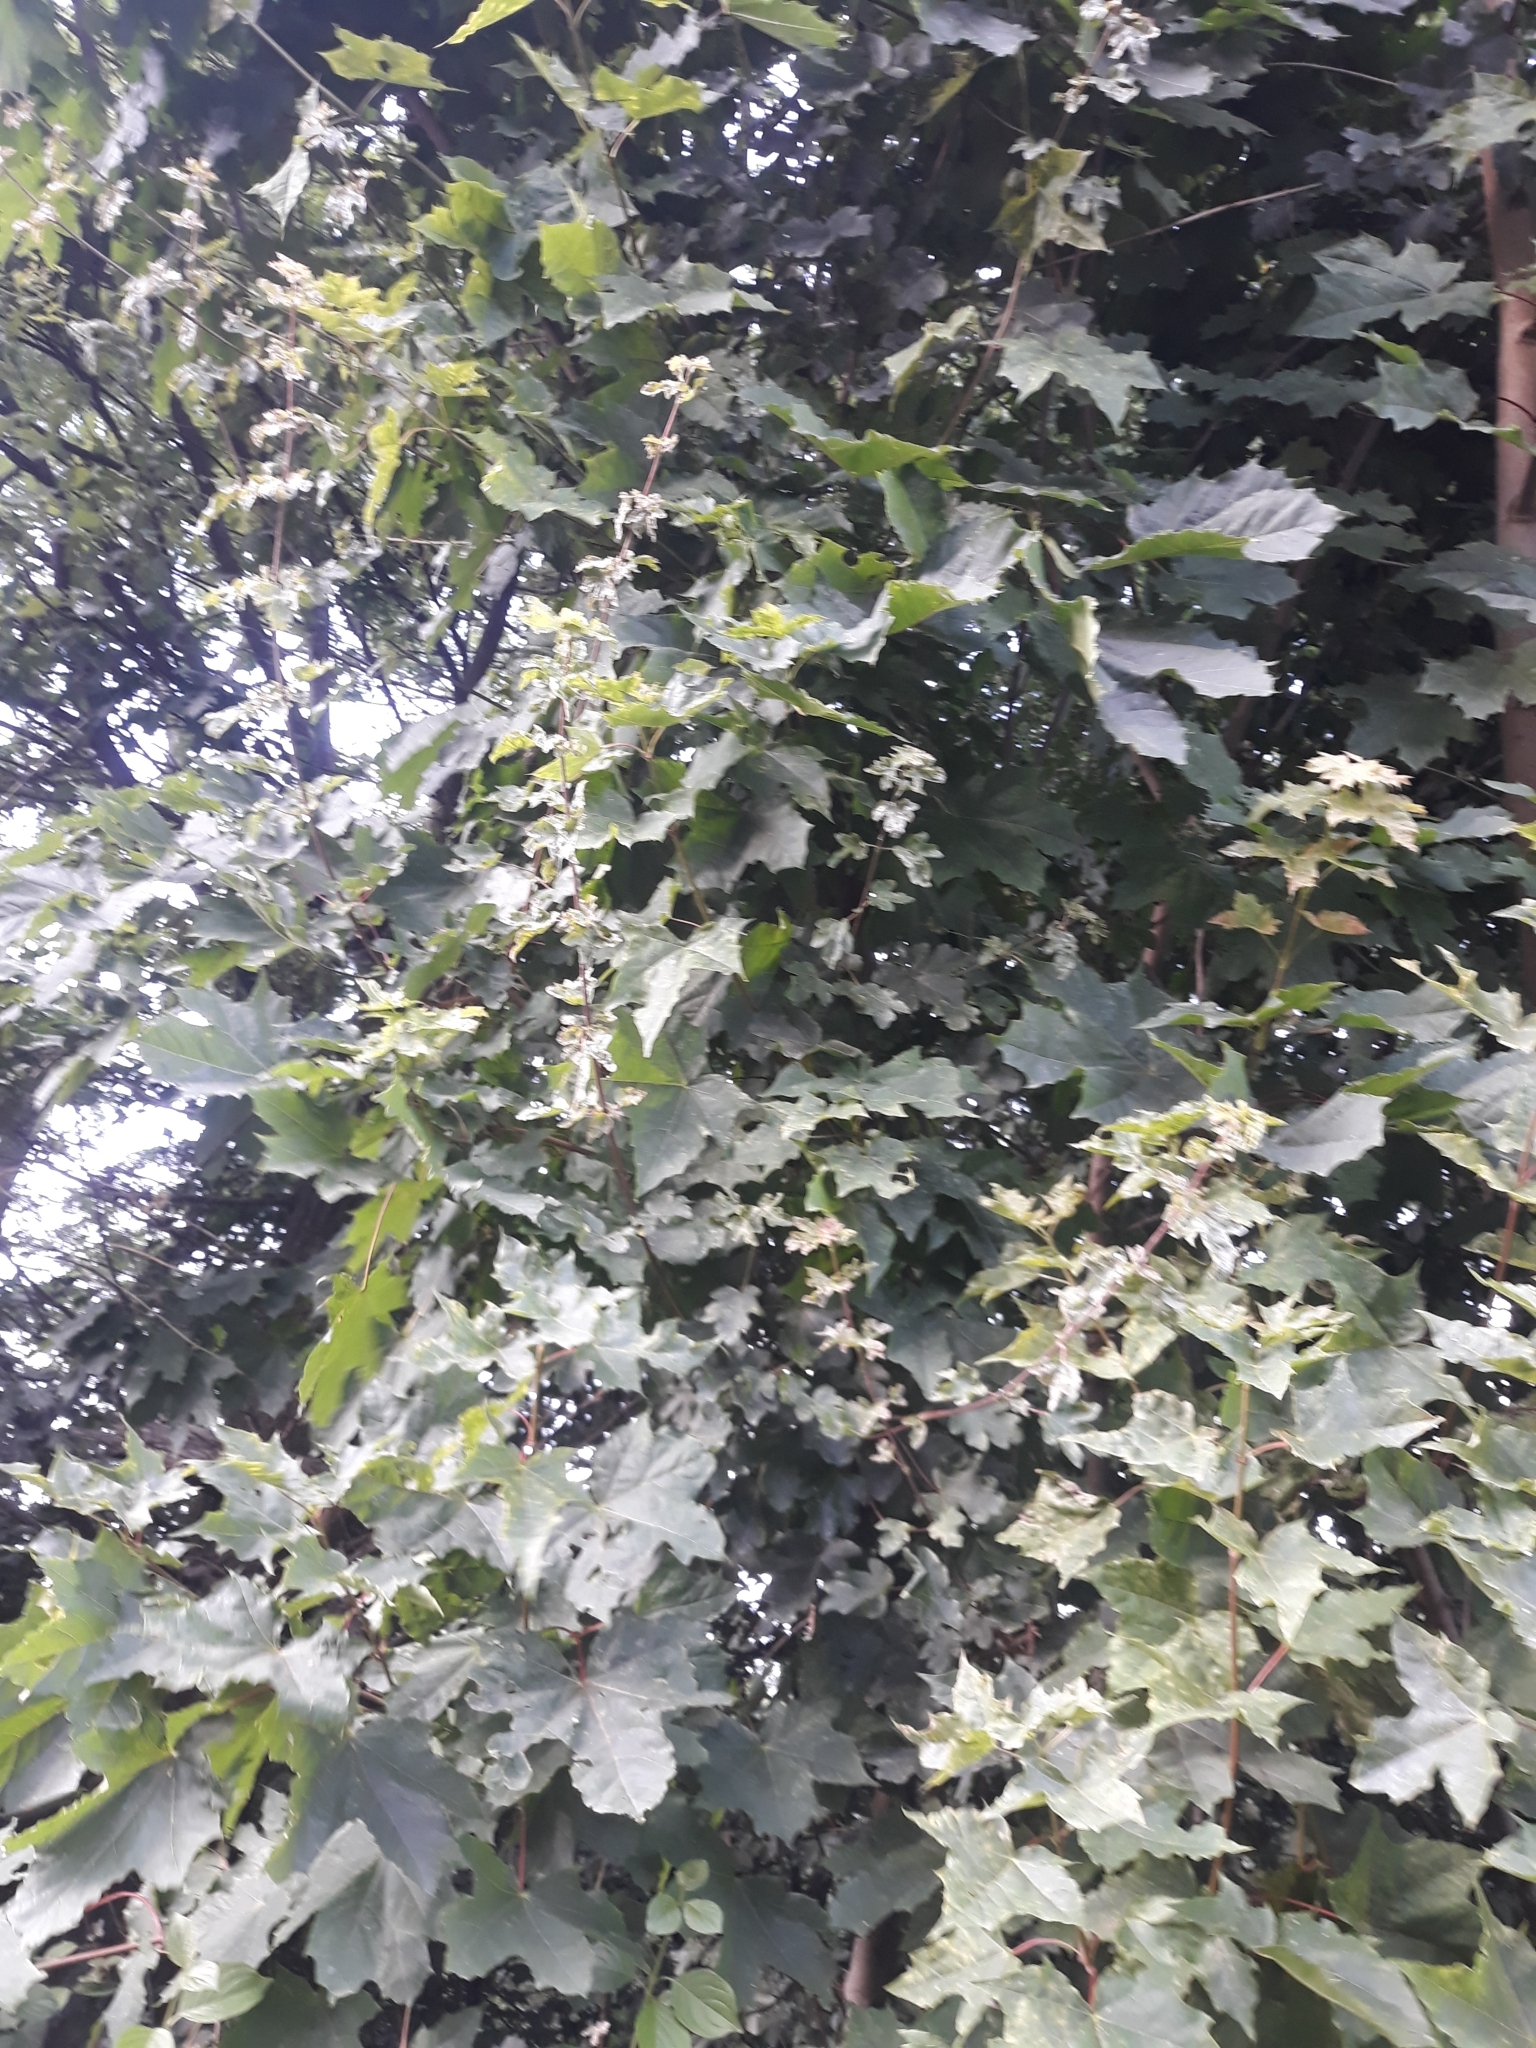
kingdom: Plantae
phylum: Tracheophyta
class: Magnoliopsida
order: Sapindales
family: Sapindaceae
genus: Acer
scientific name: Acer platanoides
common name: Norway maple
